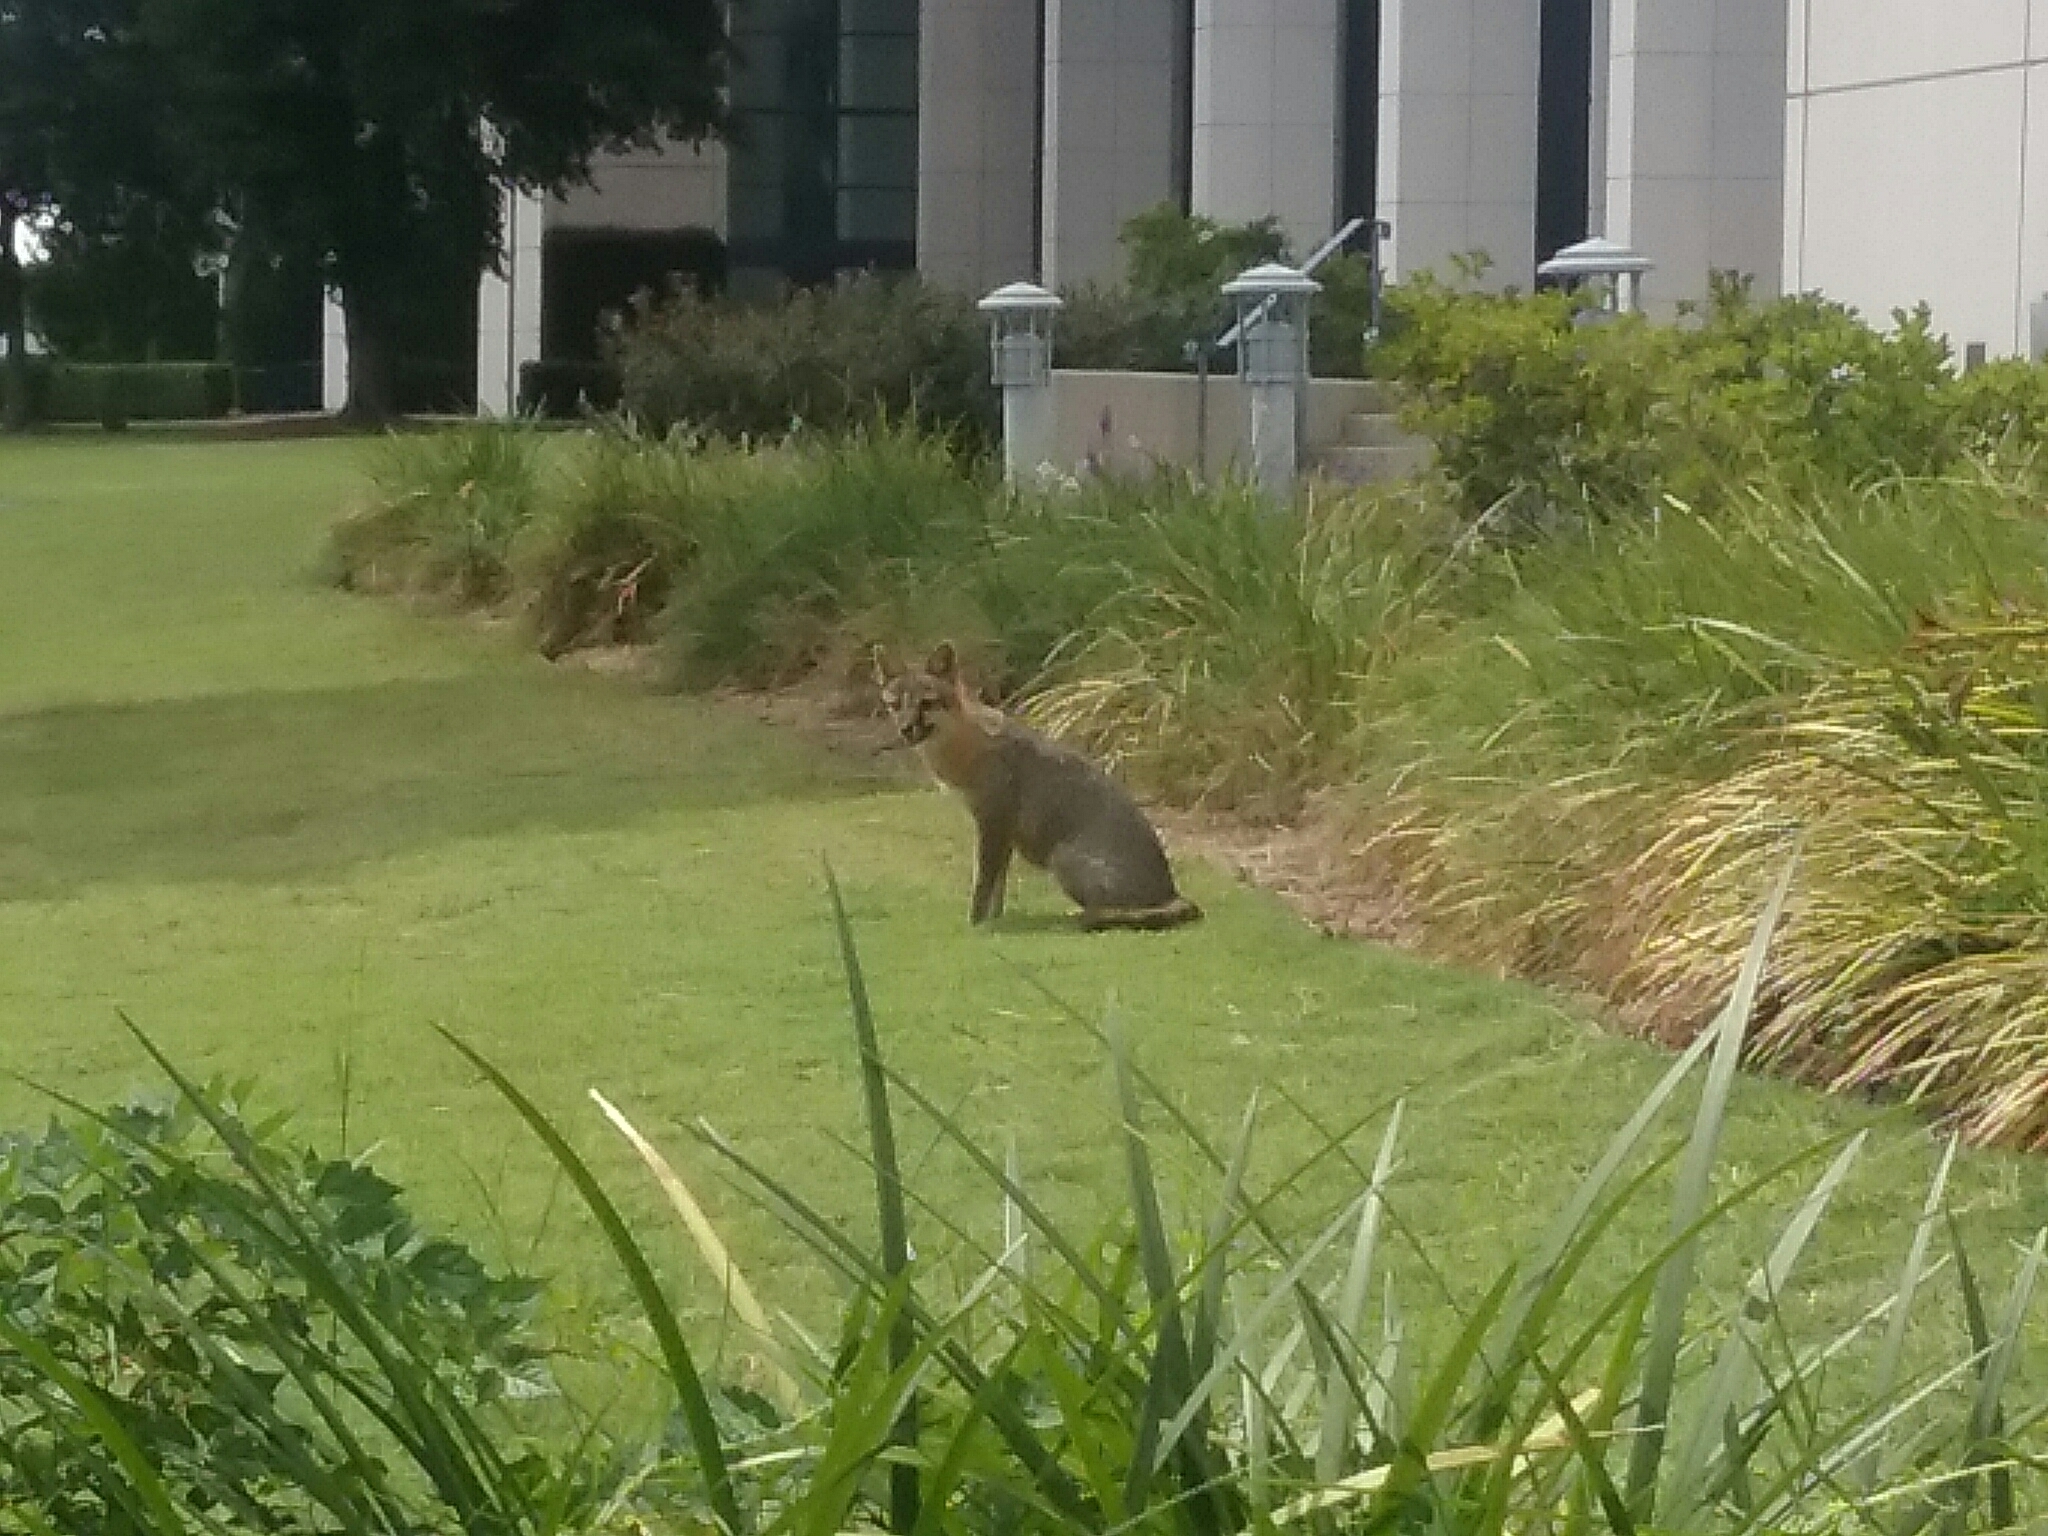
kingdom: Animalia
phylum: Chordata
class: Mammalia
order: Carnivora
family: Canidae
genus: Urocyon
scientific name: Urocyon cinereoargenteus
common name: Gray fox
